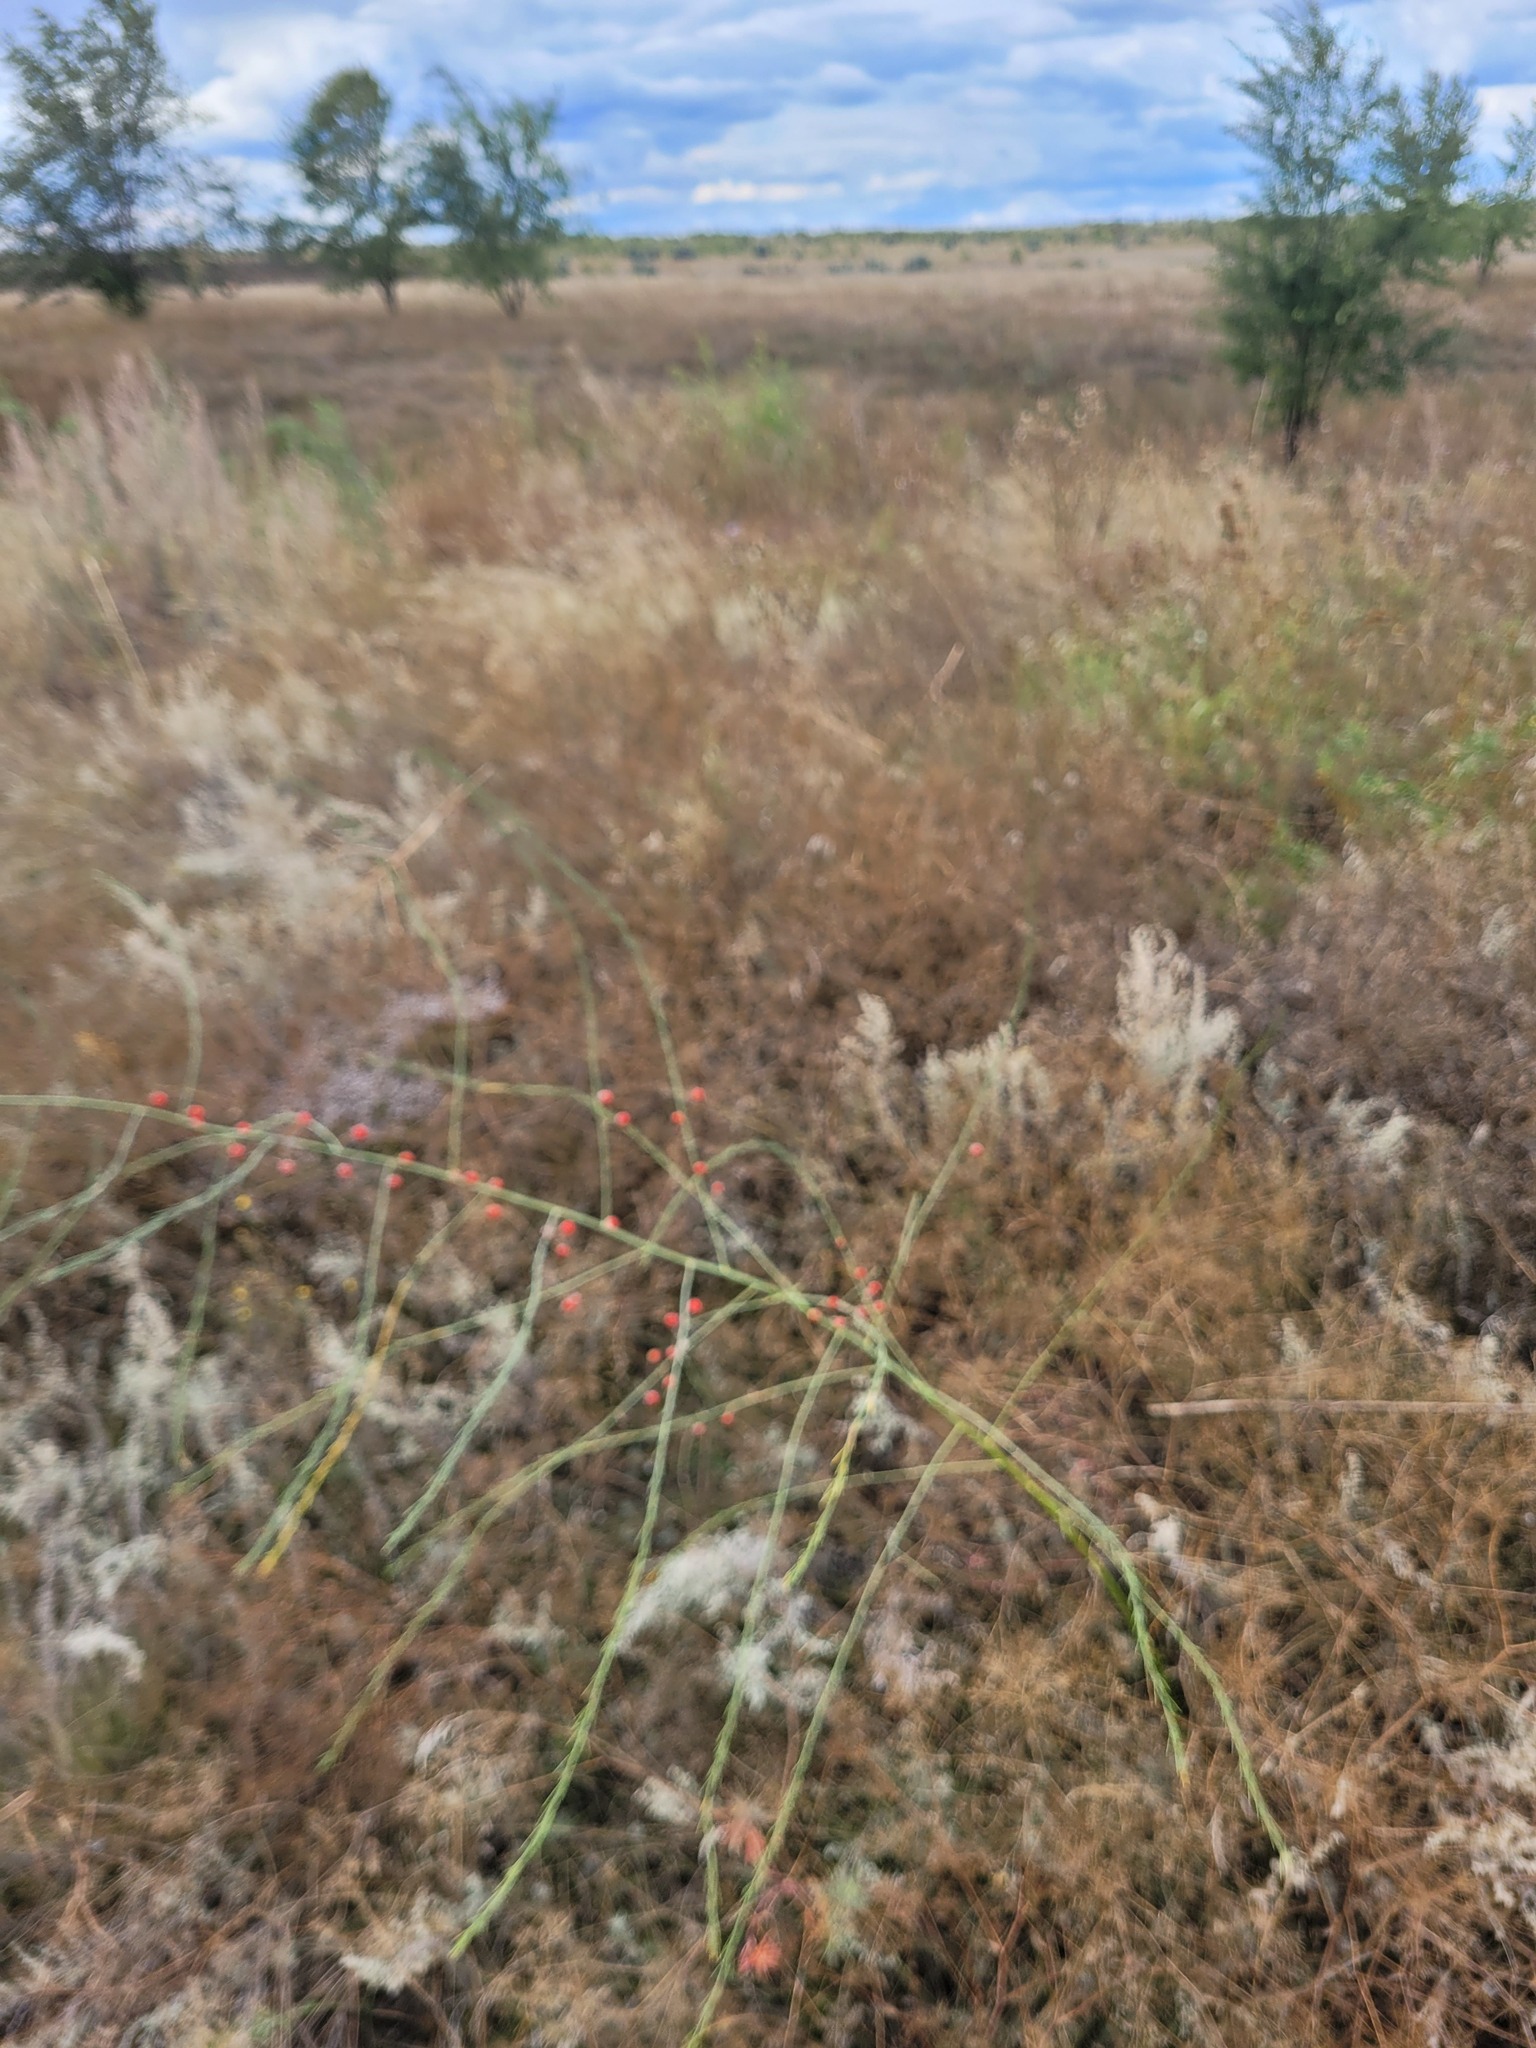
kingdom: Plantae
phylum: Tracheophyta
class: Liliopsida
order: Asparagales
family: Asparagaceae
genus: Asparagus
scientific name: Asparagus officinalis
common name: Garden asparagus
